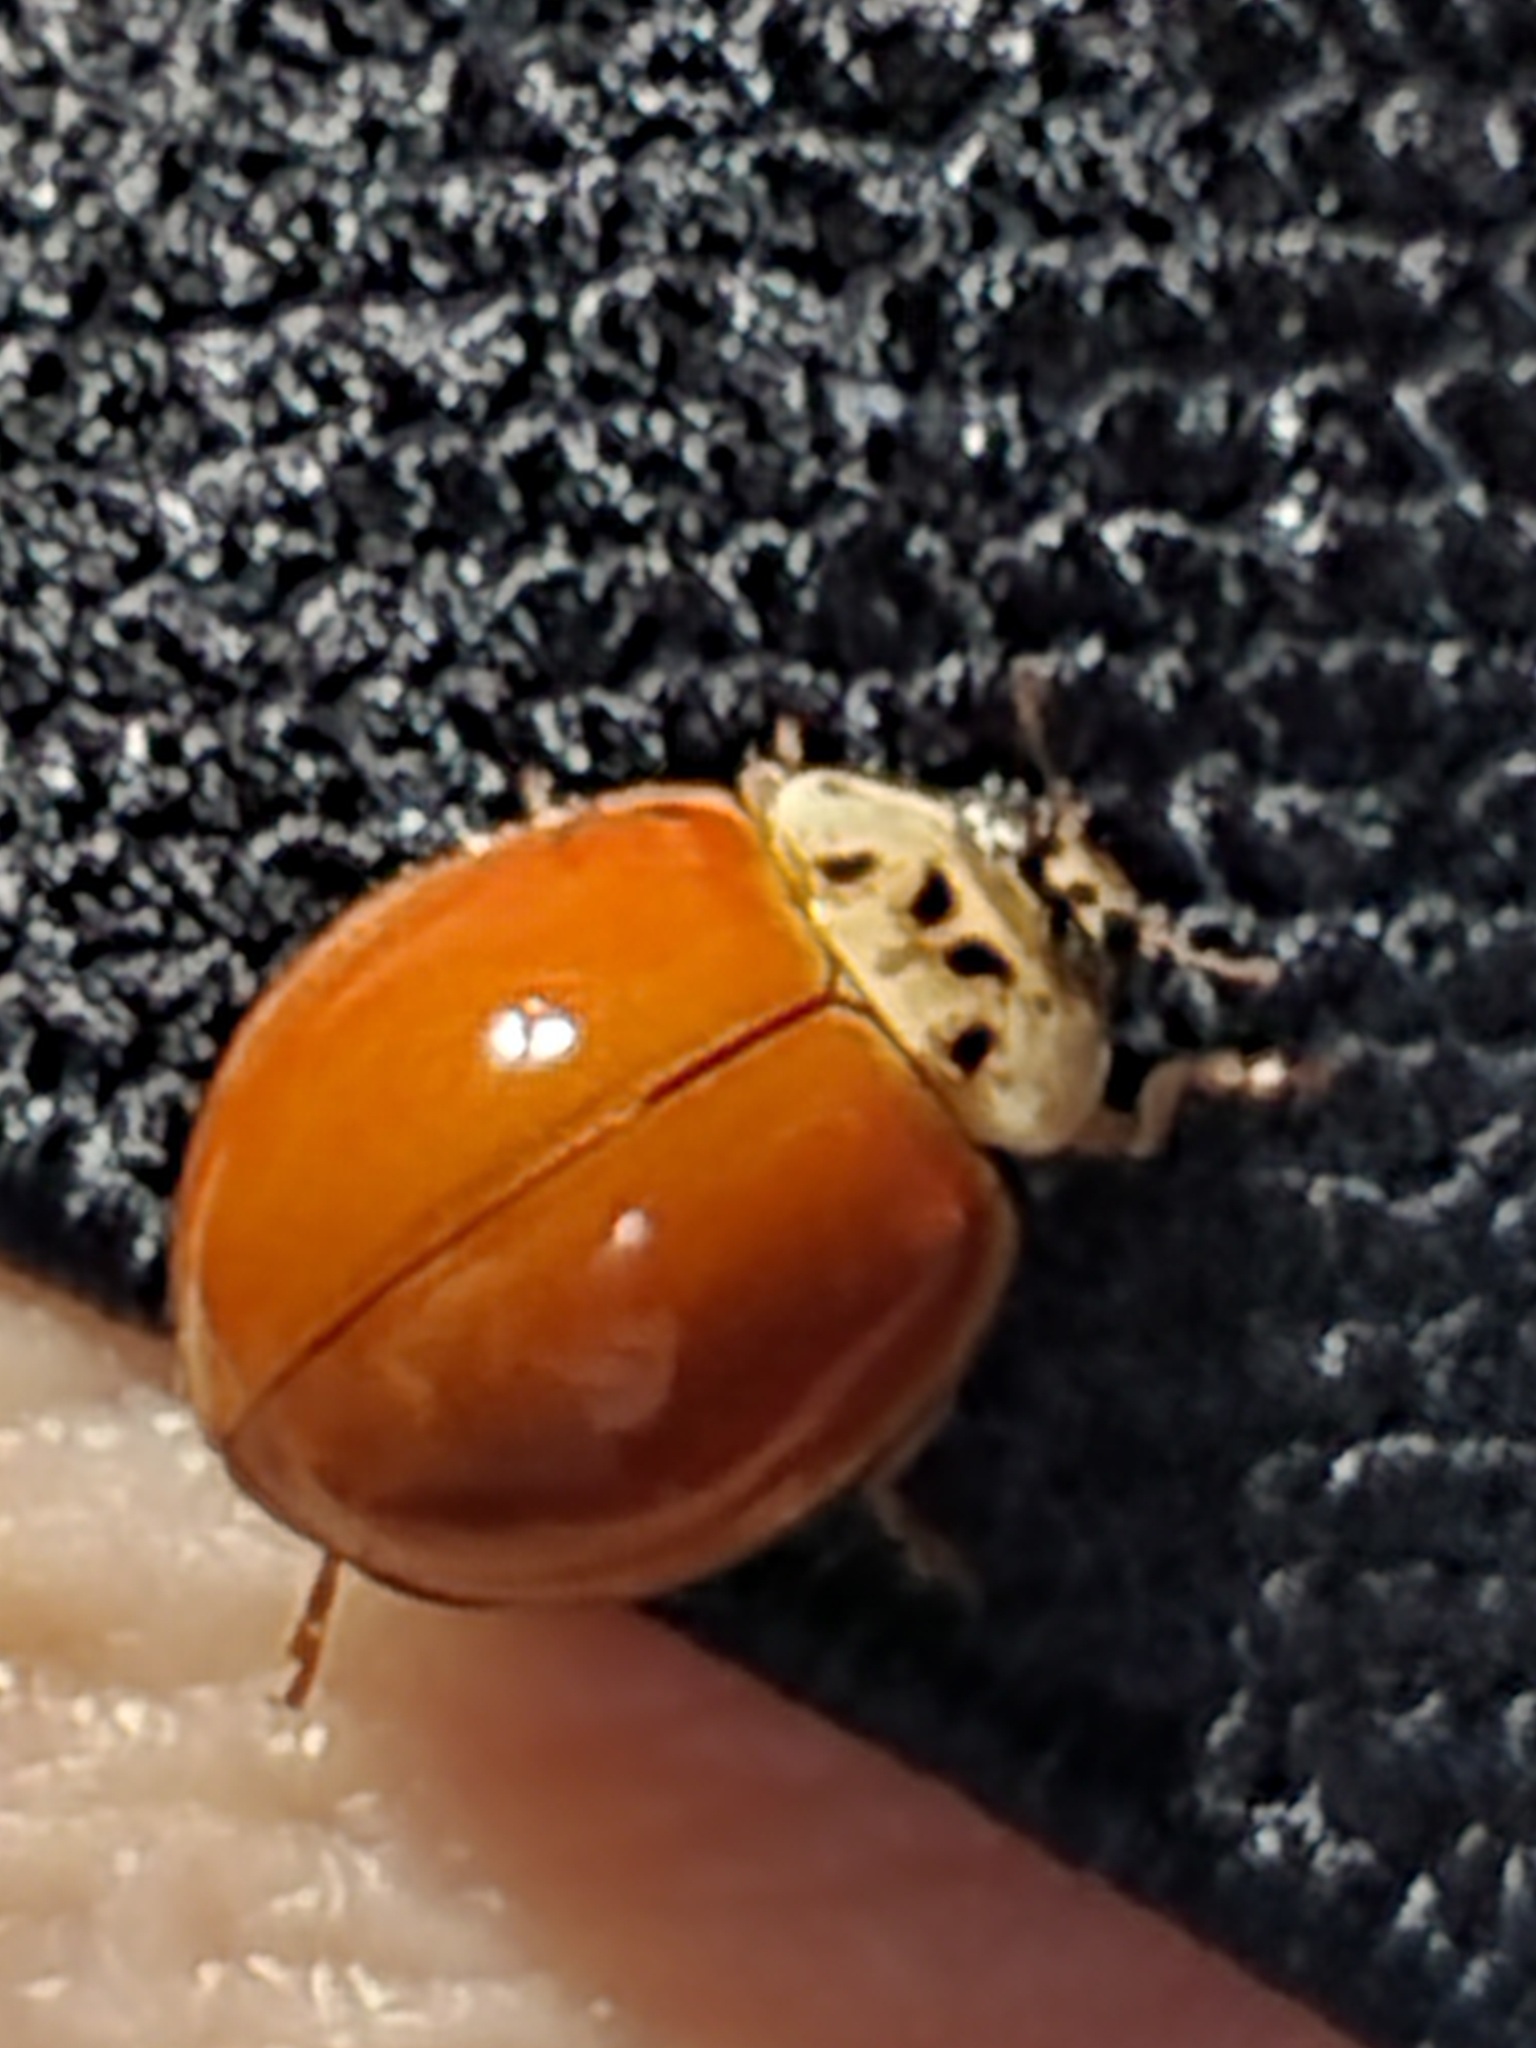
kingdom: Animalia
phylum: Arthropoda
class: Insecta
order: Coleoptera
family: Coccinellidae
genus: Harmonia
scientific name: Harmonia axyridis
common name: Harlequin ladybird
